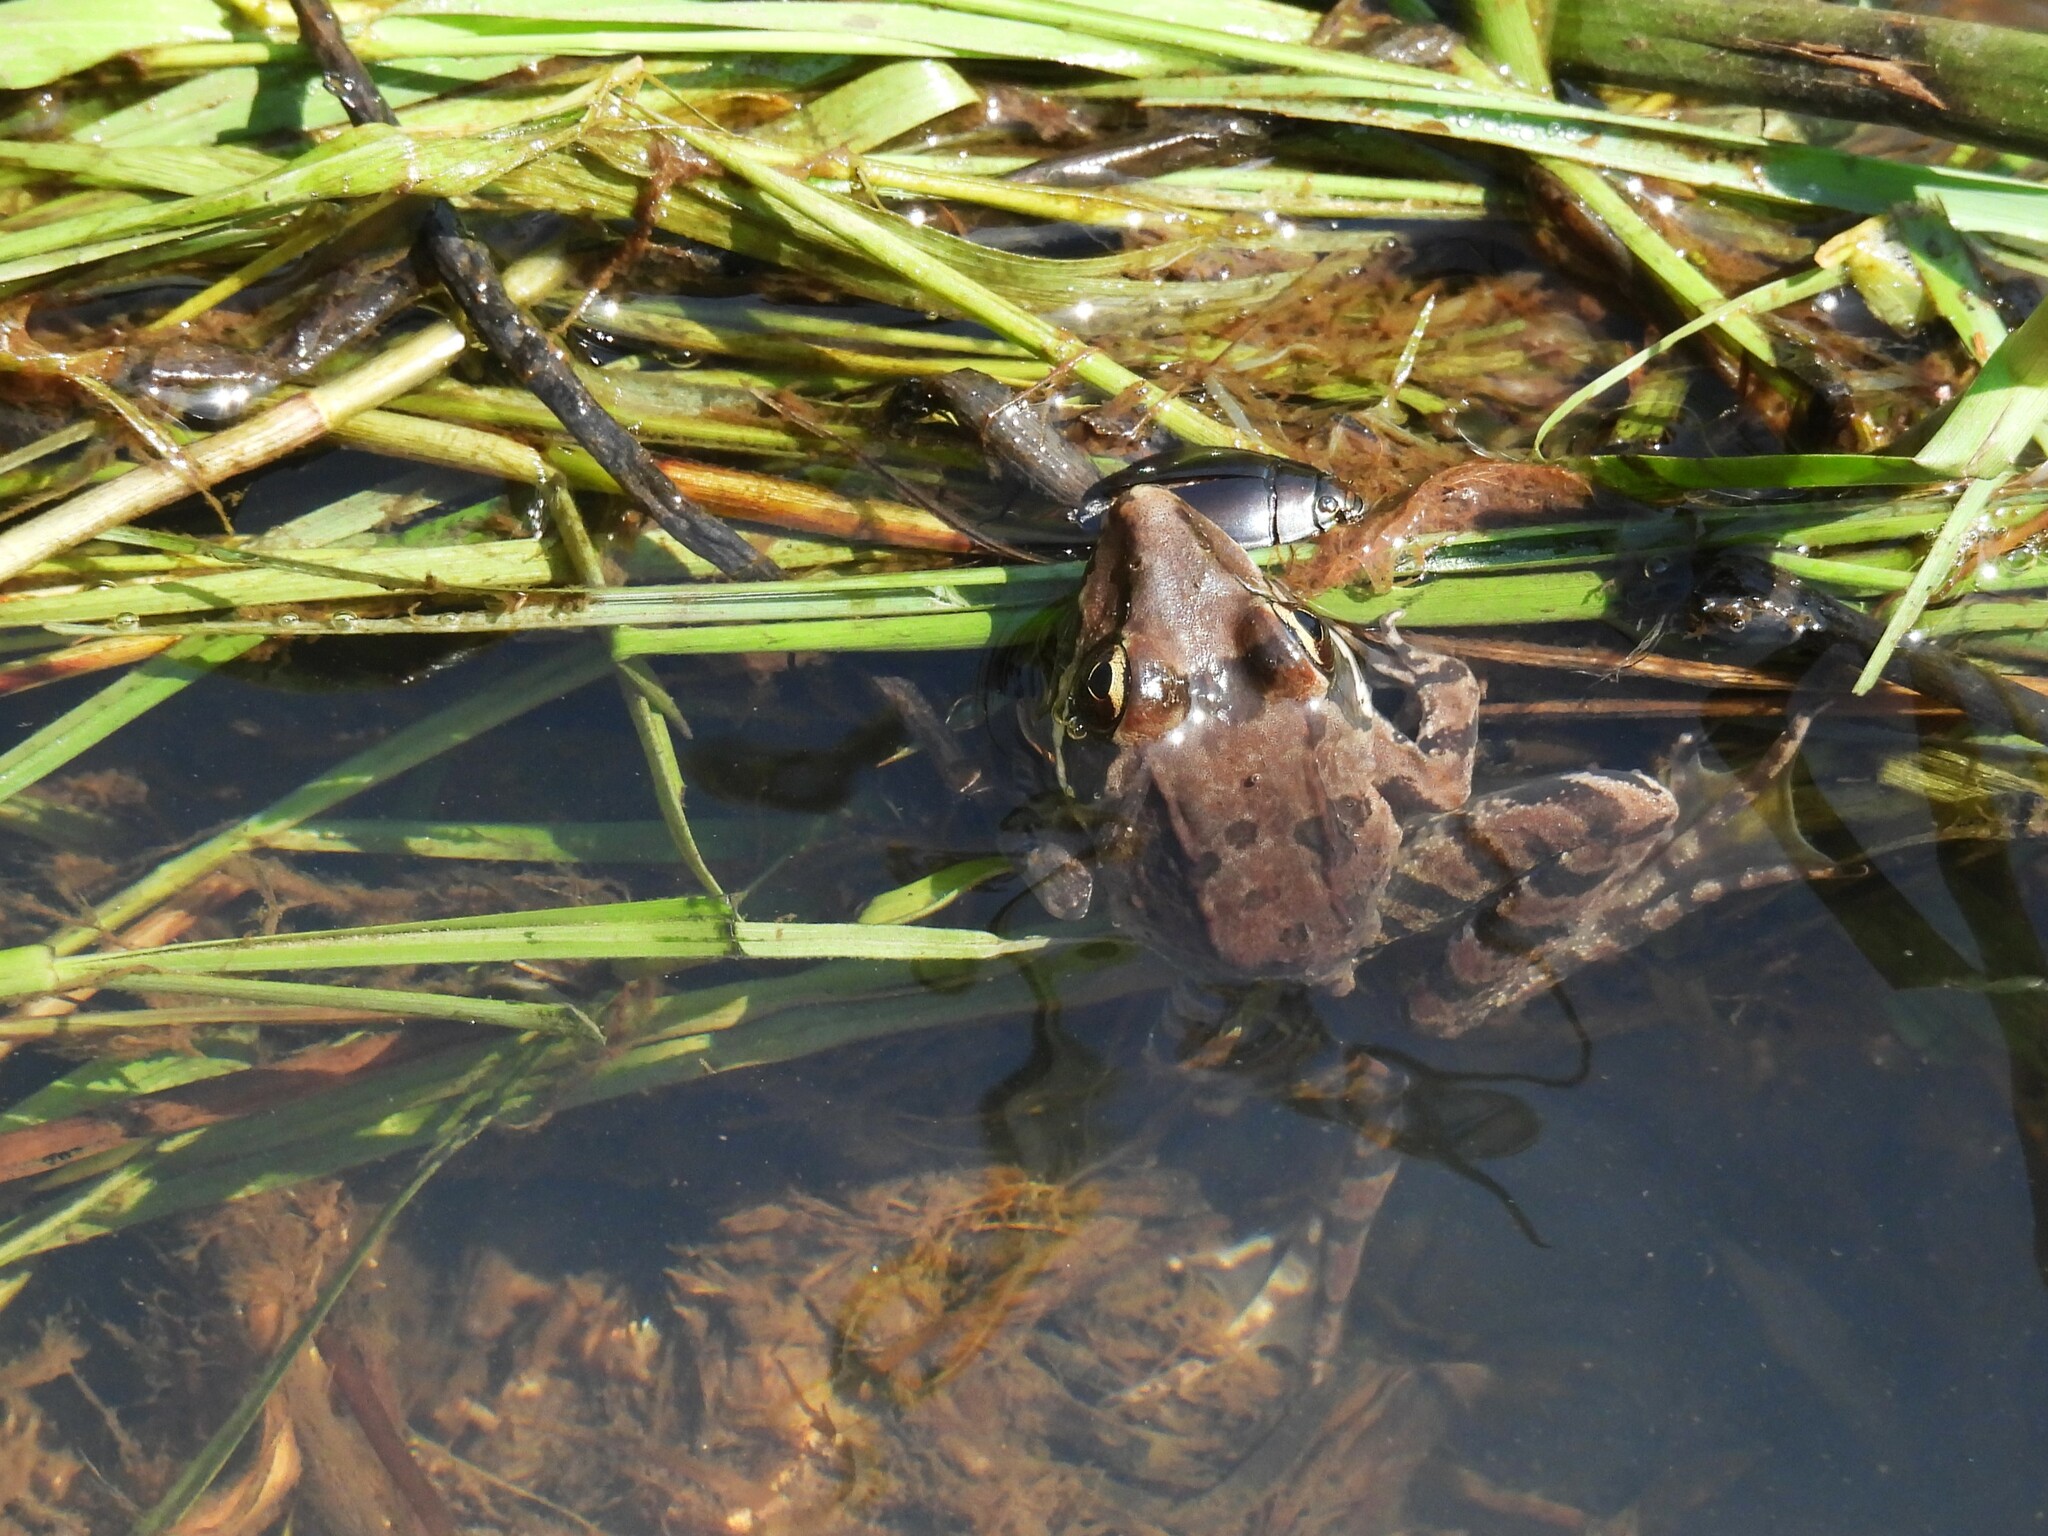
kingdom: Animalia
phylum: Chordata
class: Amphibia
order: Anura
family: Pyxicephalidae
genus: Amietia
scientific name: Amietia tenuoplicata
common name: River frog
